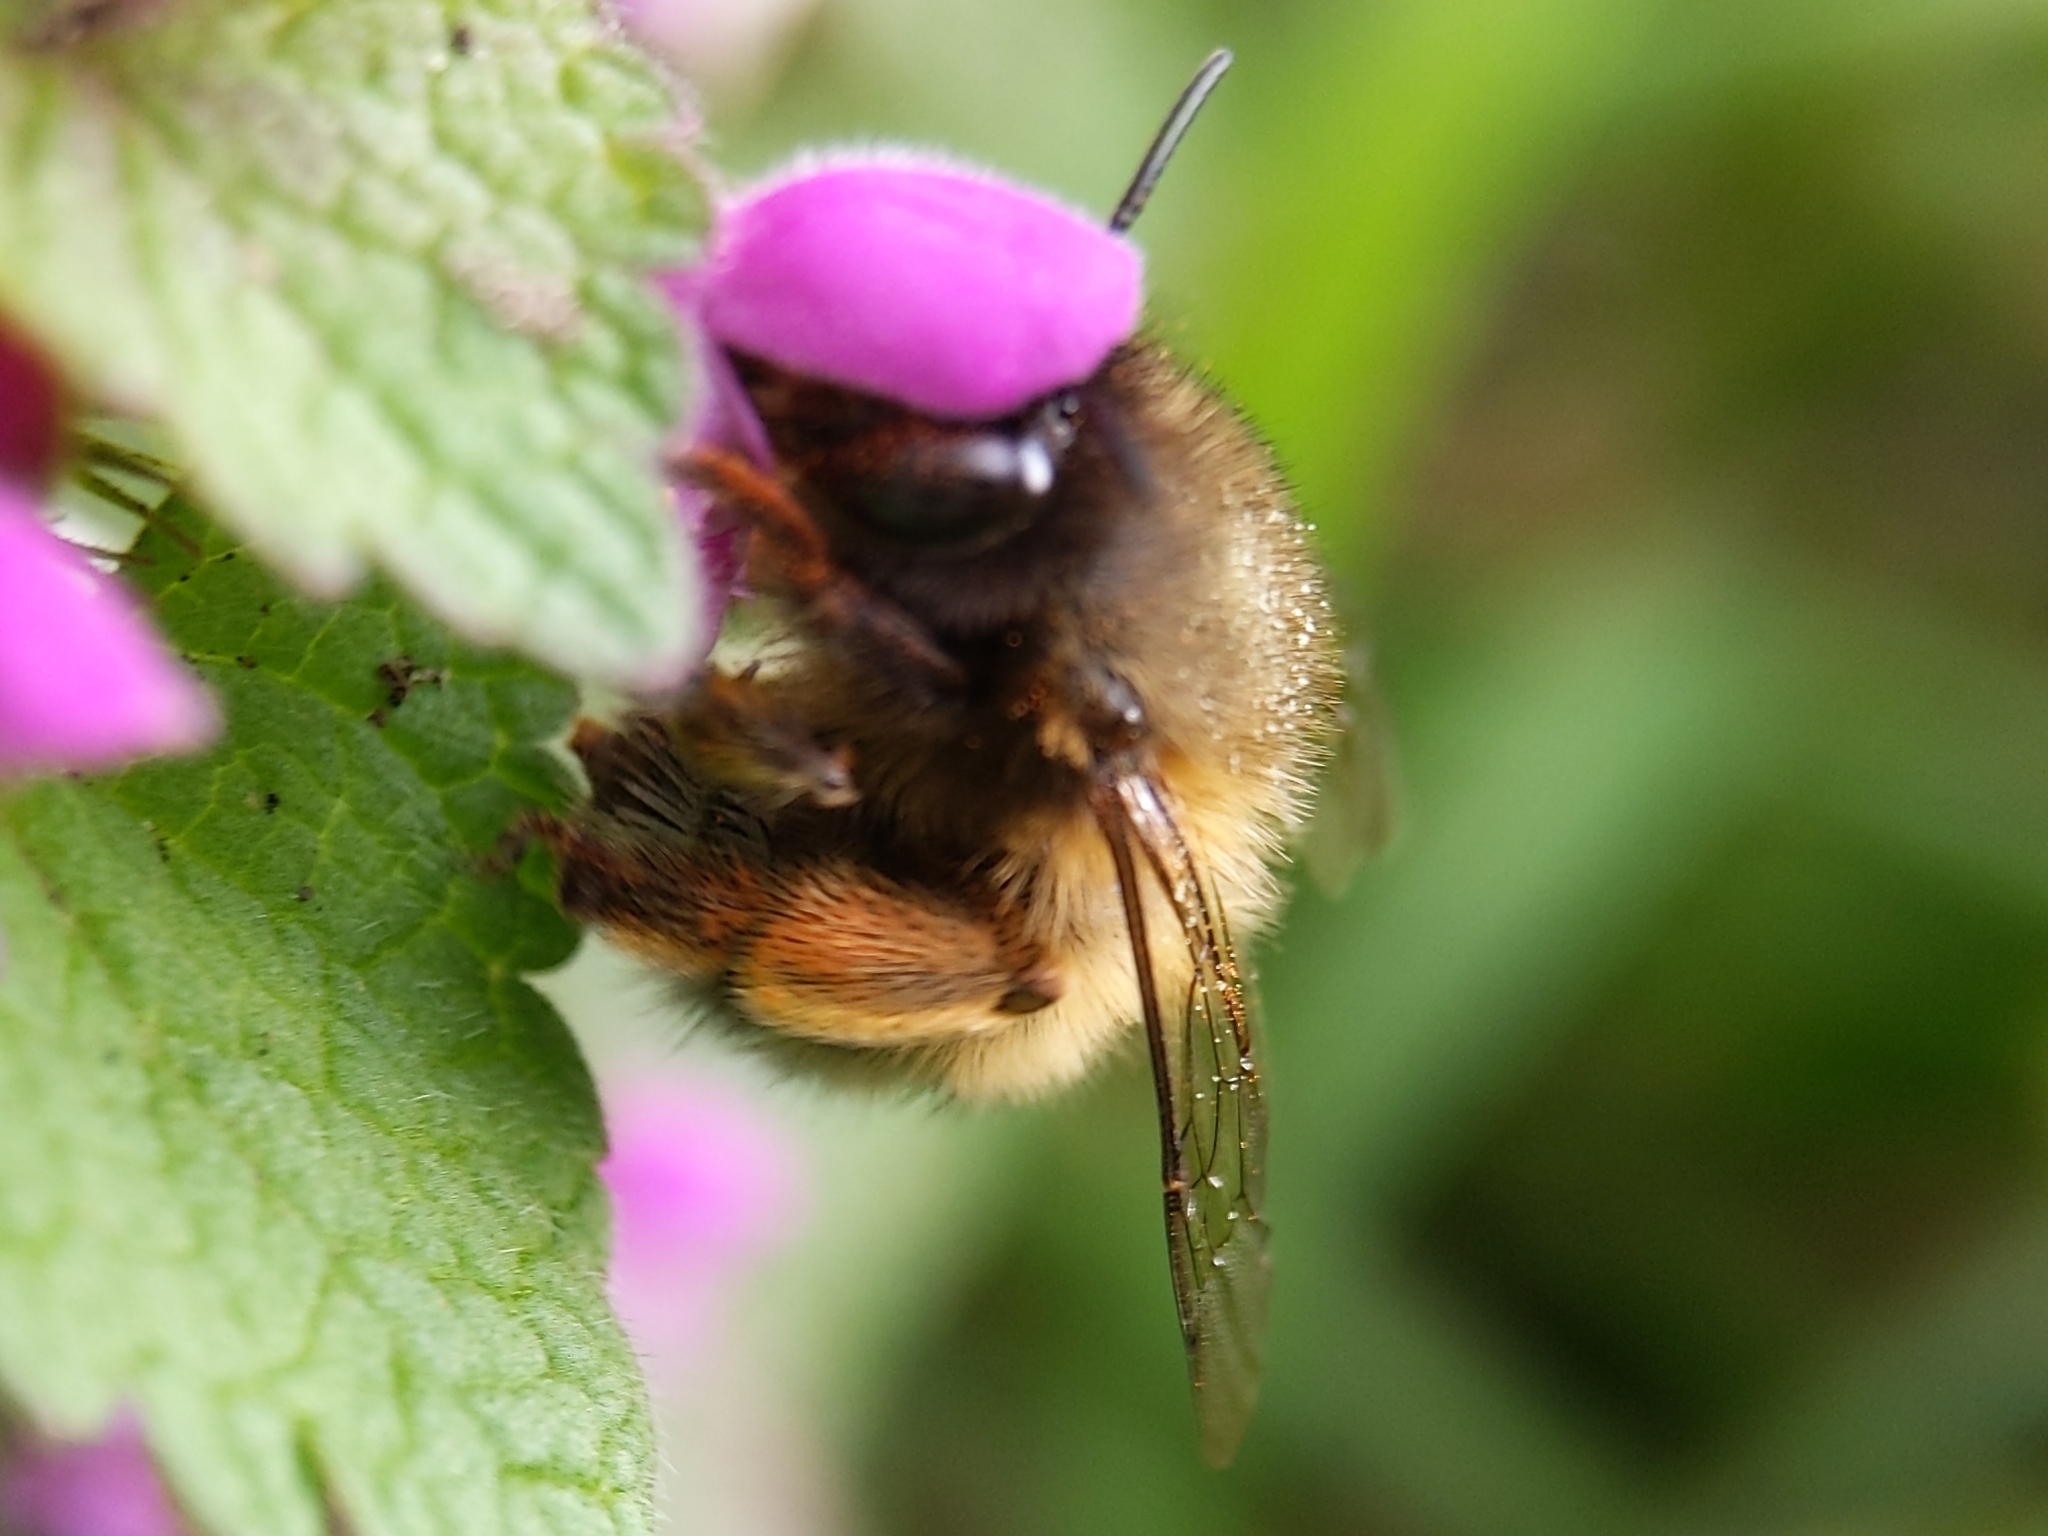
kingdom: Animalia
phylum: Arthropoda
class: Insecta
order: Hymenoptera
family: Apidae
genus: Anthophora
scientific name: Anthophora plumipes
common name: Hairy-footed flower bee
